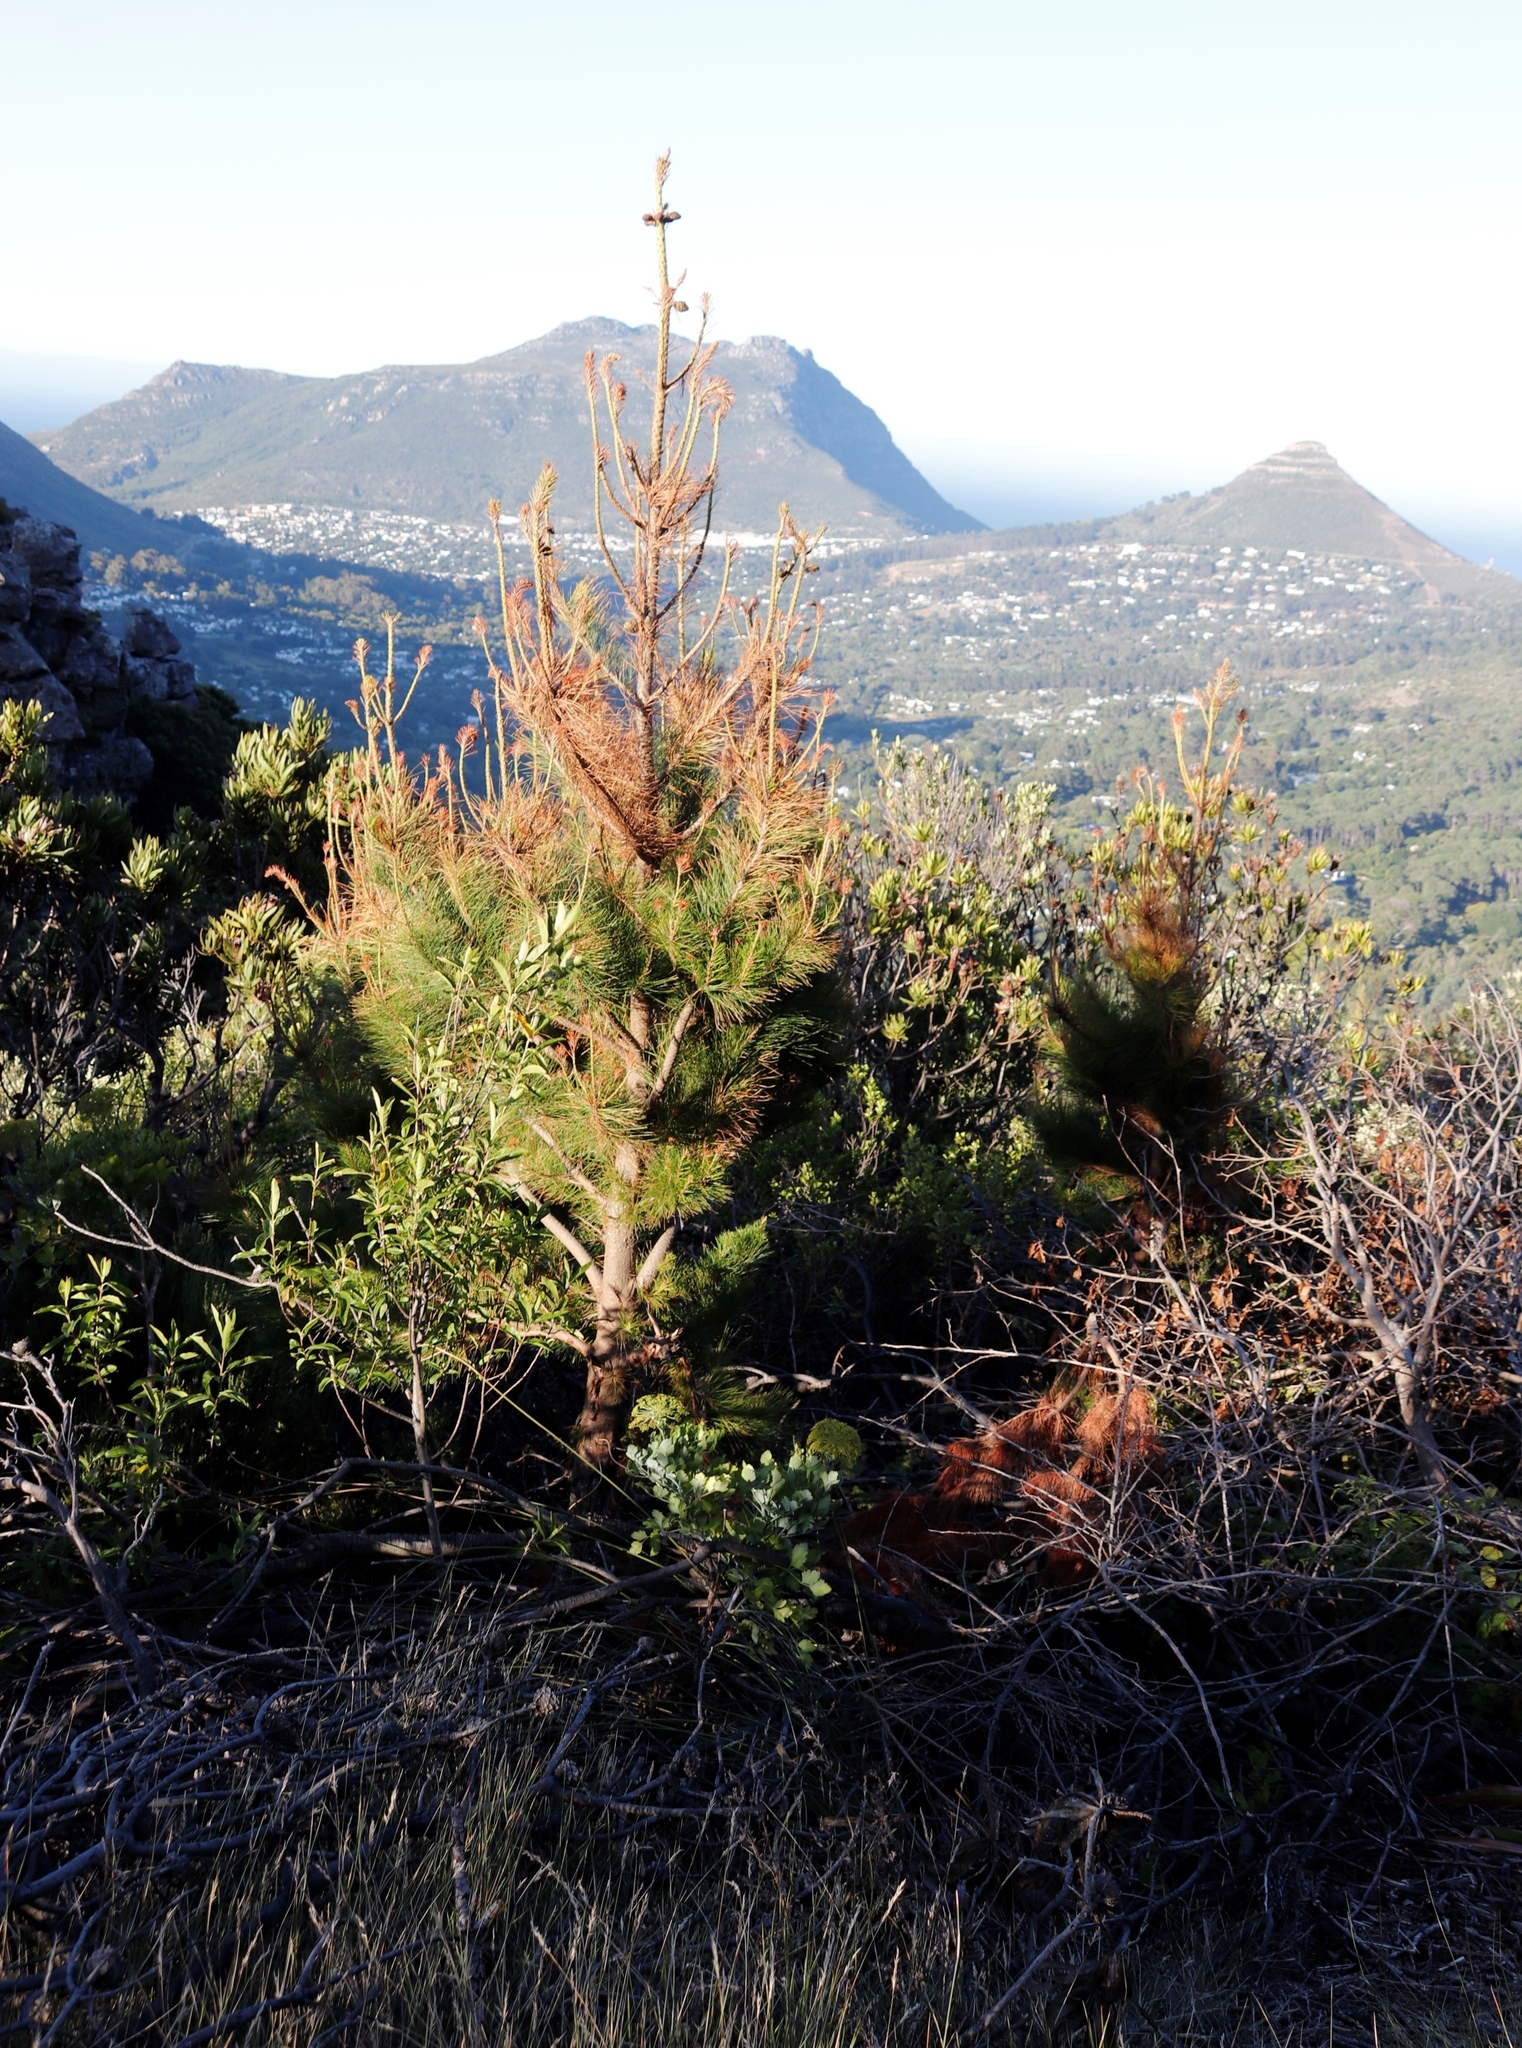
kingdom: Plantae
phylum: Tracheophyta
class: Pinopsida
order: Pinales
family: Pinaceae
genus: Pinus
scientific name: Pinus radiata
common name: Monterey pine
